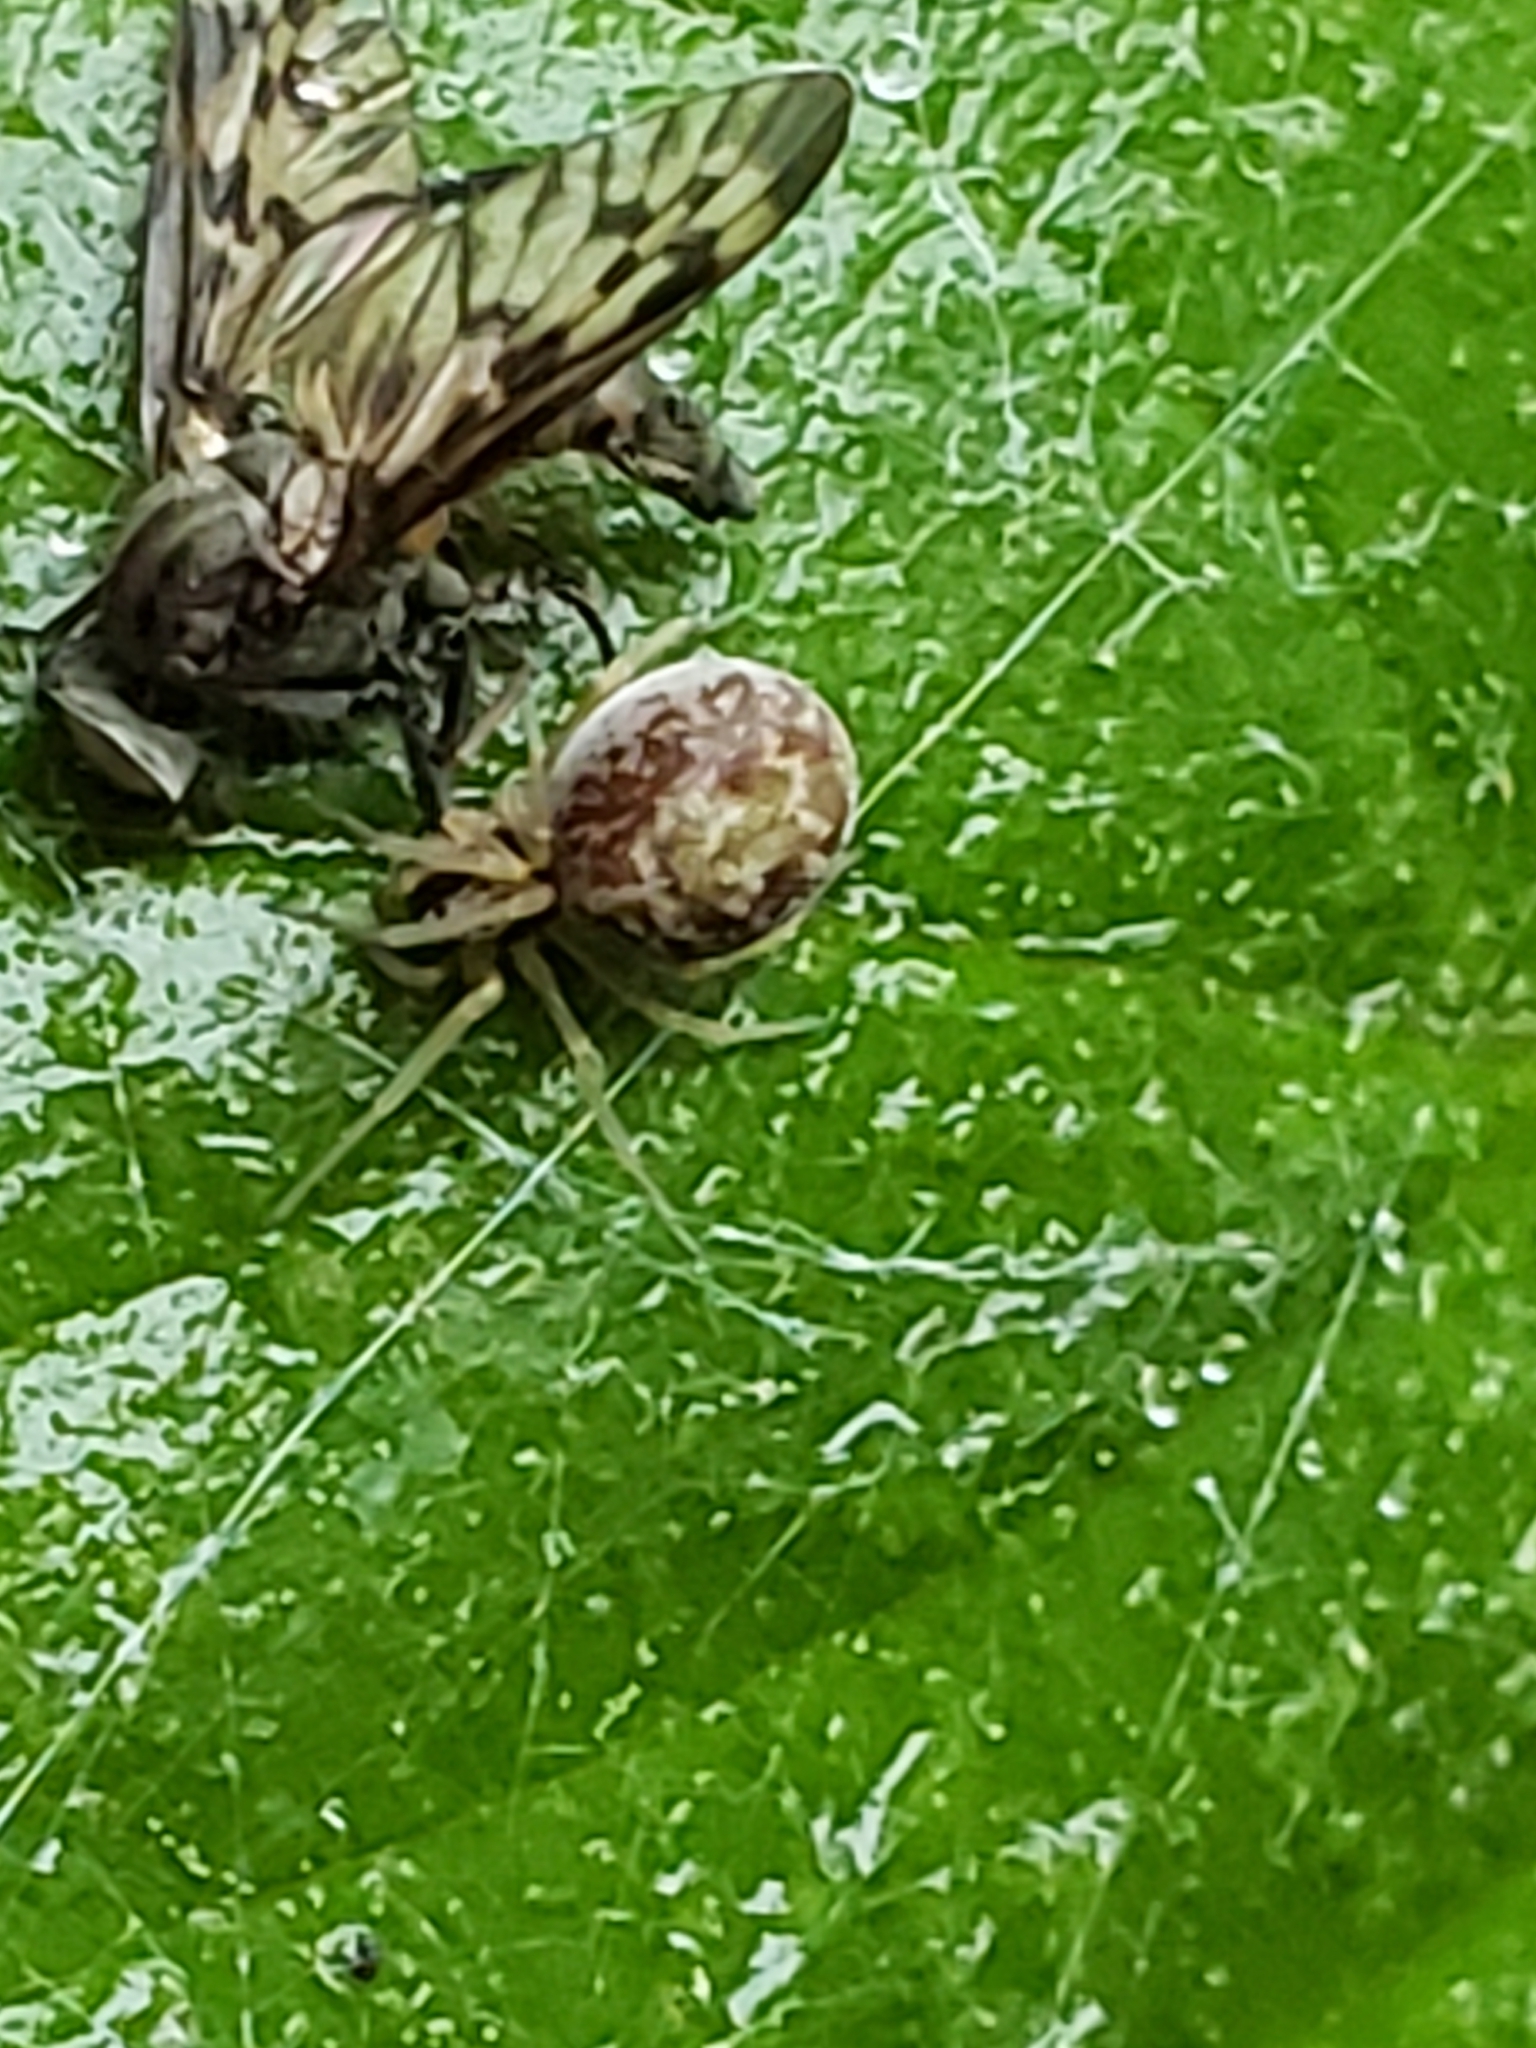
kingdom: Animalia
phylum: Arthropoda
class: Insecta
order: Diptera
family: Rhagionidae
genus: Rhagio
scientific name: Rhagio punctipennis
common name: Lesser variegated snipe fly
